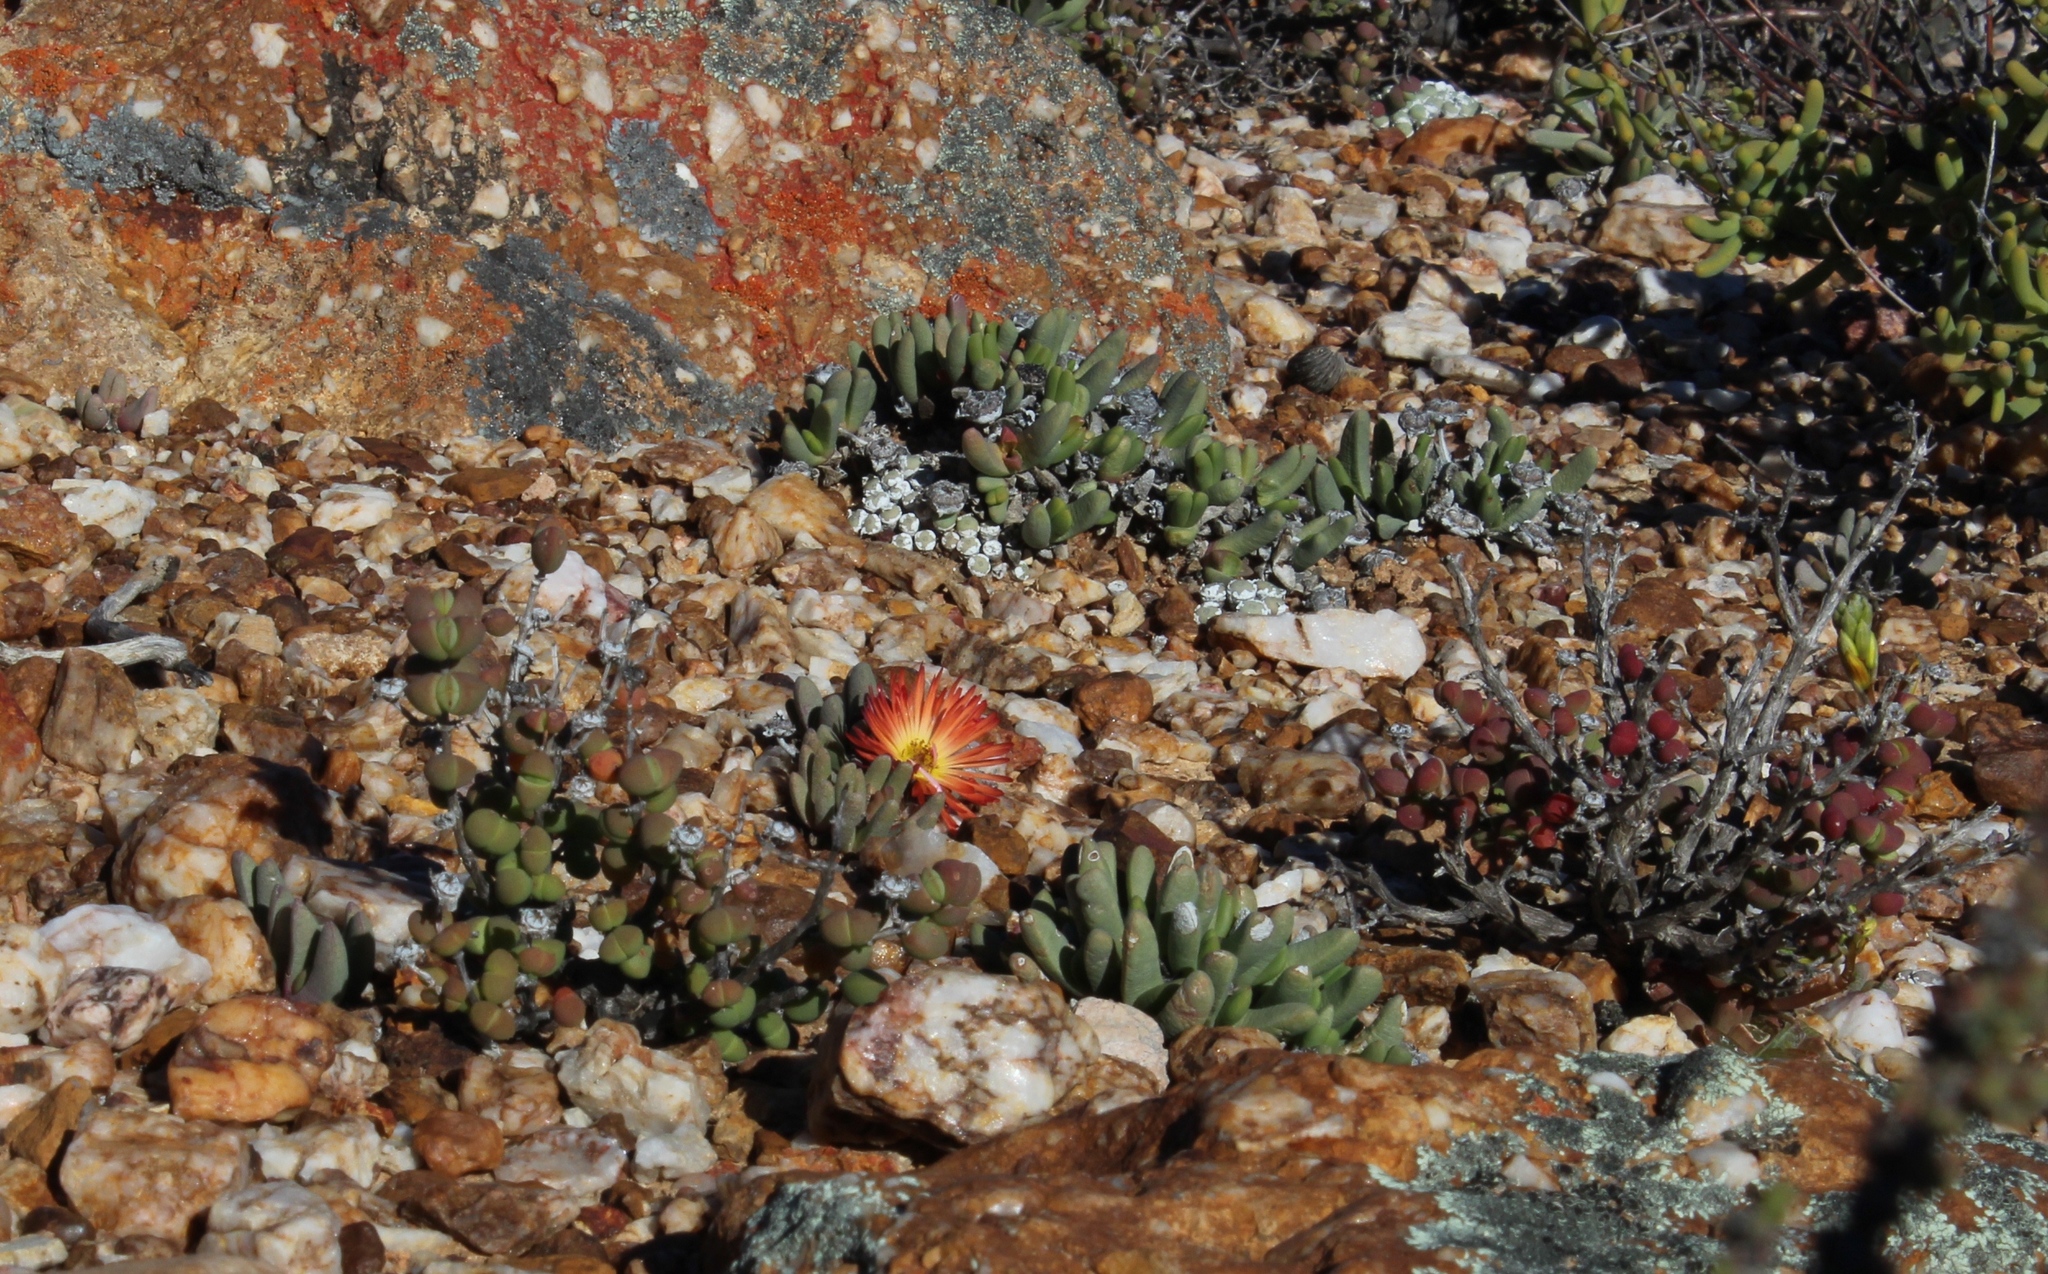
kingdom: Plantae
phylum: Tracheophyta
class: Magnoliopsida
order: Caryophyllales
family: Aizoaceae
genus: Cephalophyllum
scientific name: Cephalophyllum caespitosum
